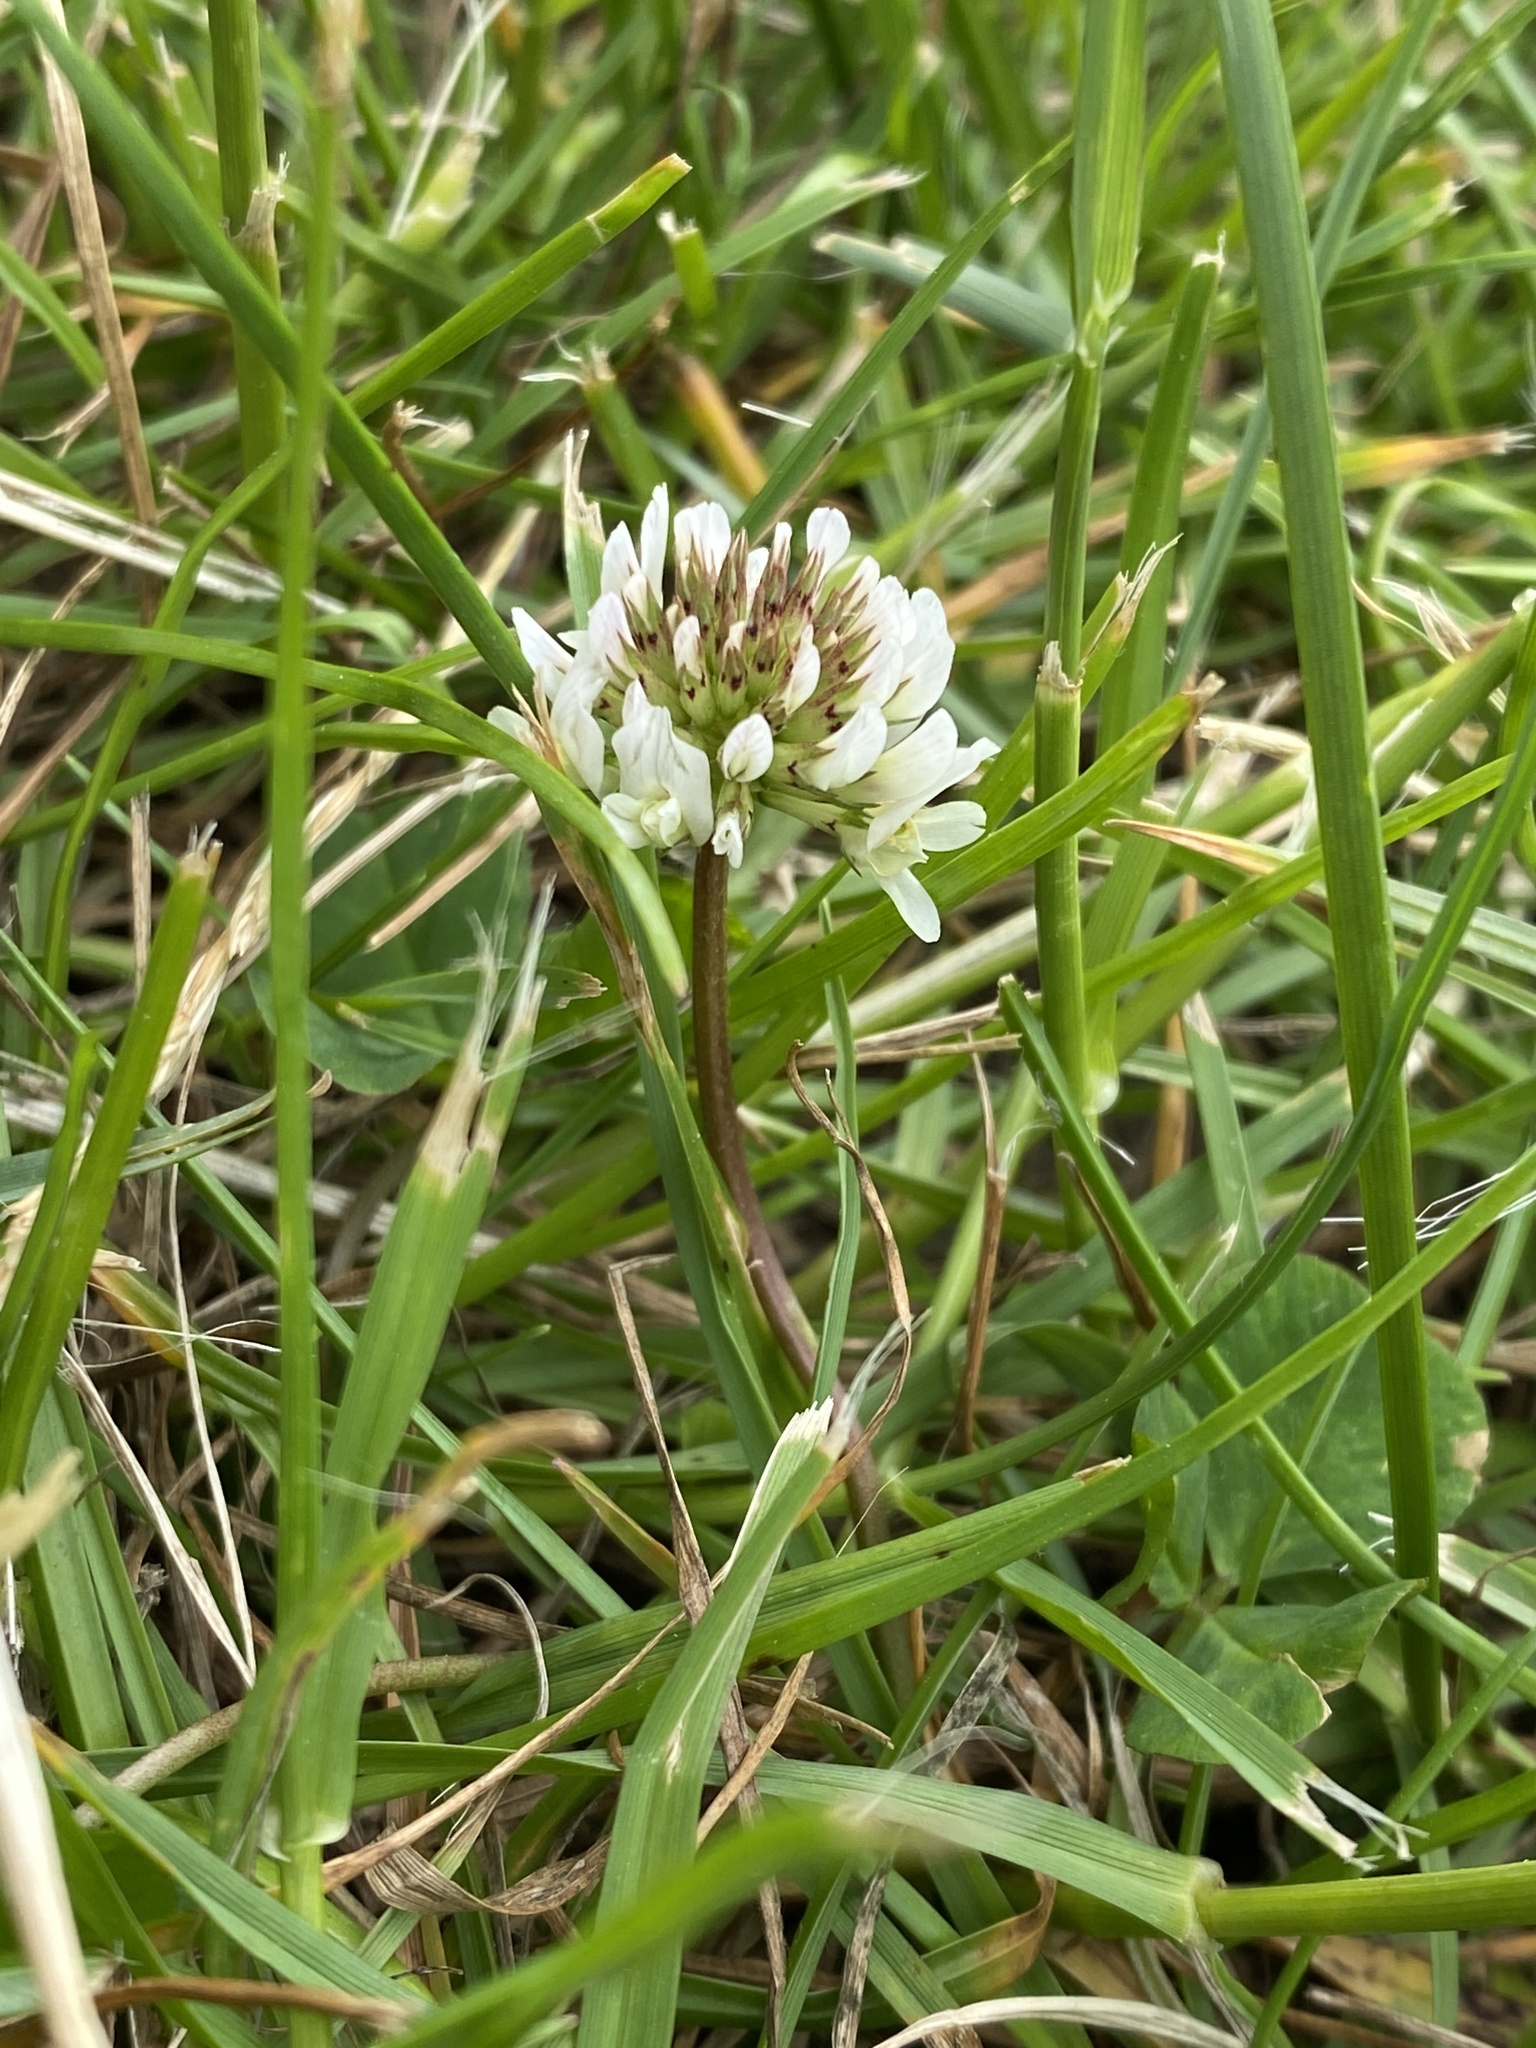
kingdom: Plantae
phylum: Tracheophyta
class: Magnoliopsida
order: Fabales
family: Fabaceae
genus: Trifolium
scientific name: Trifolium repens
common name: White clover
